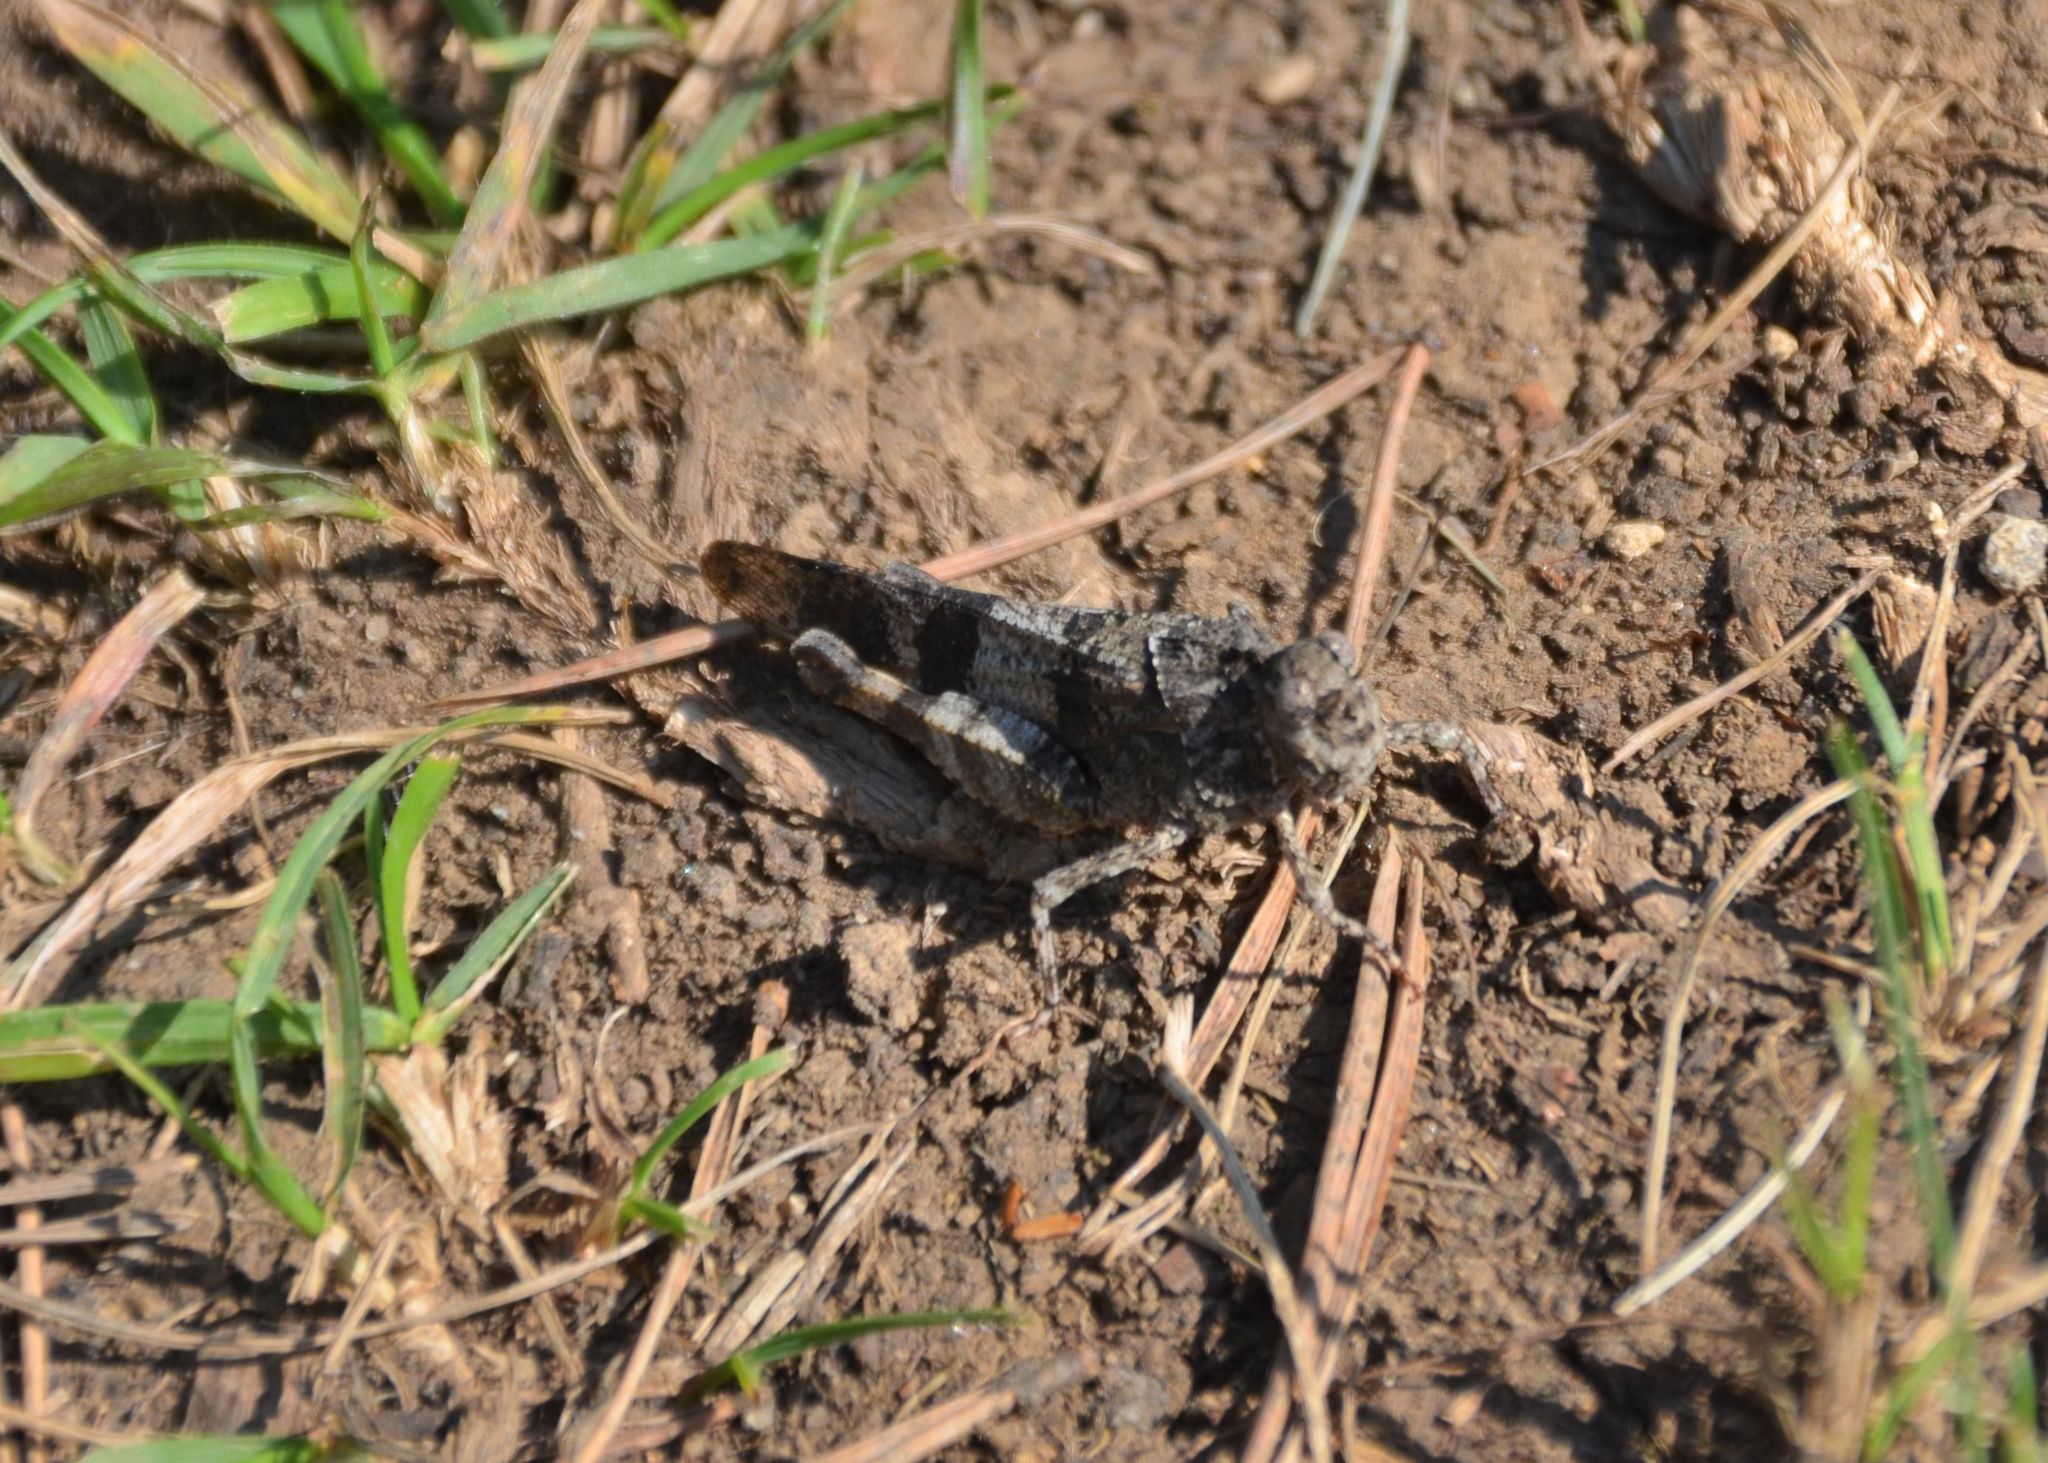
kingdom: Animalia
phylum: Arthropoda
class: Insecta
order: Orthoptera
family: Acrididae
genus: Oedipoda
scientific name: Oedipoda caerulescens
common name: Blue-winged grasshopper
